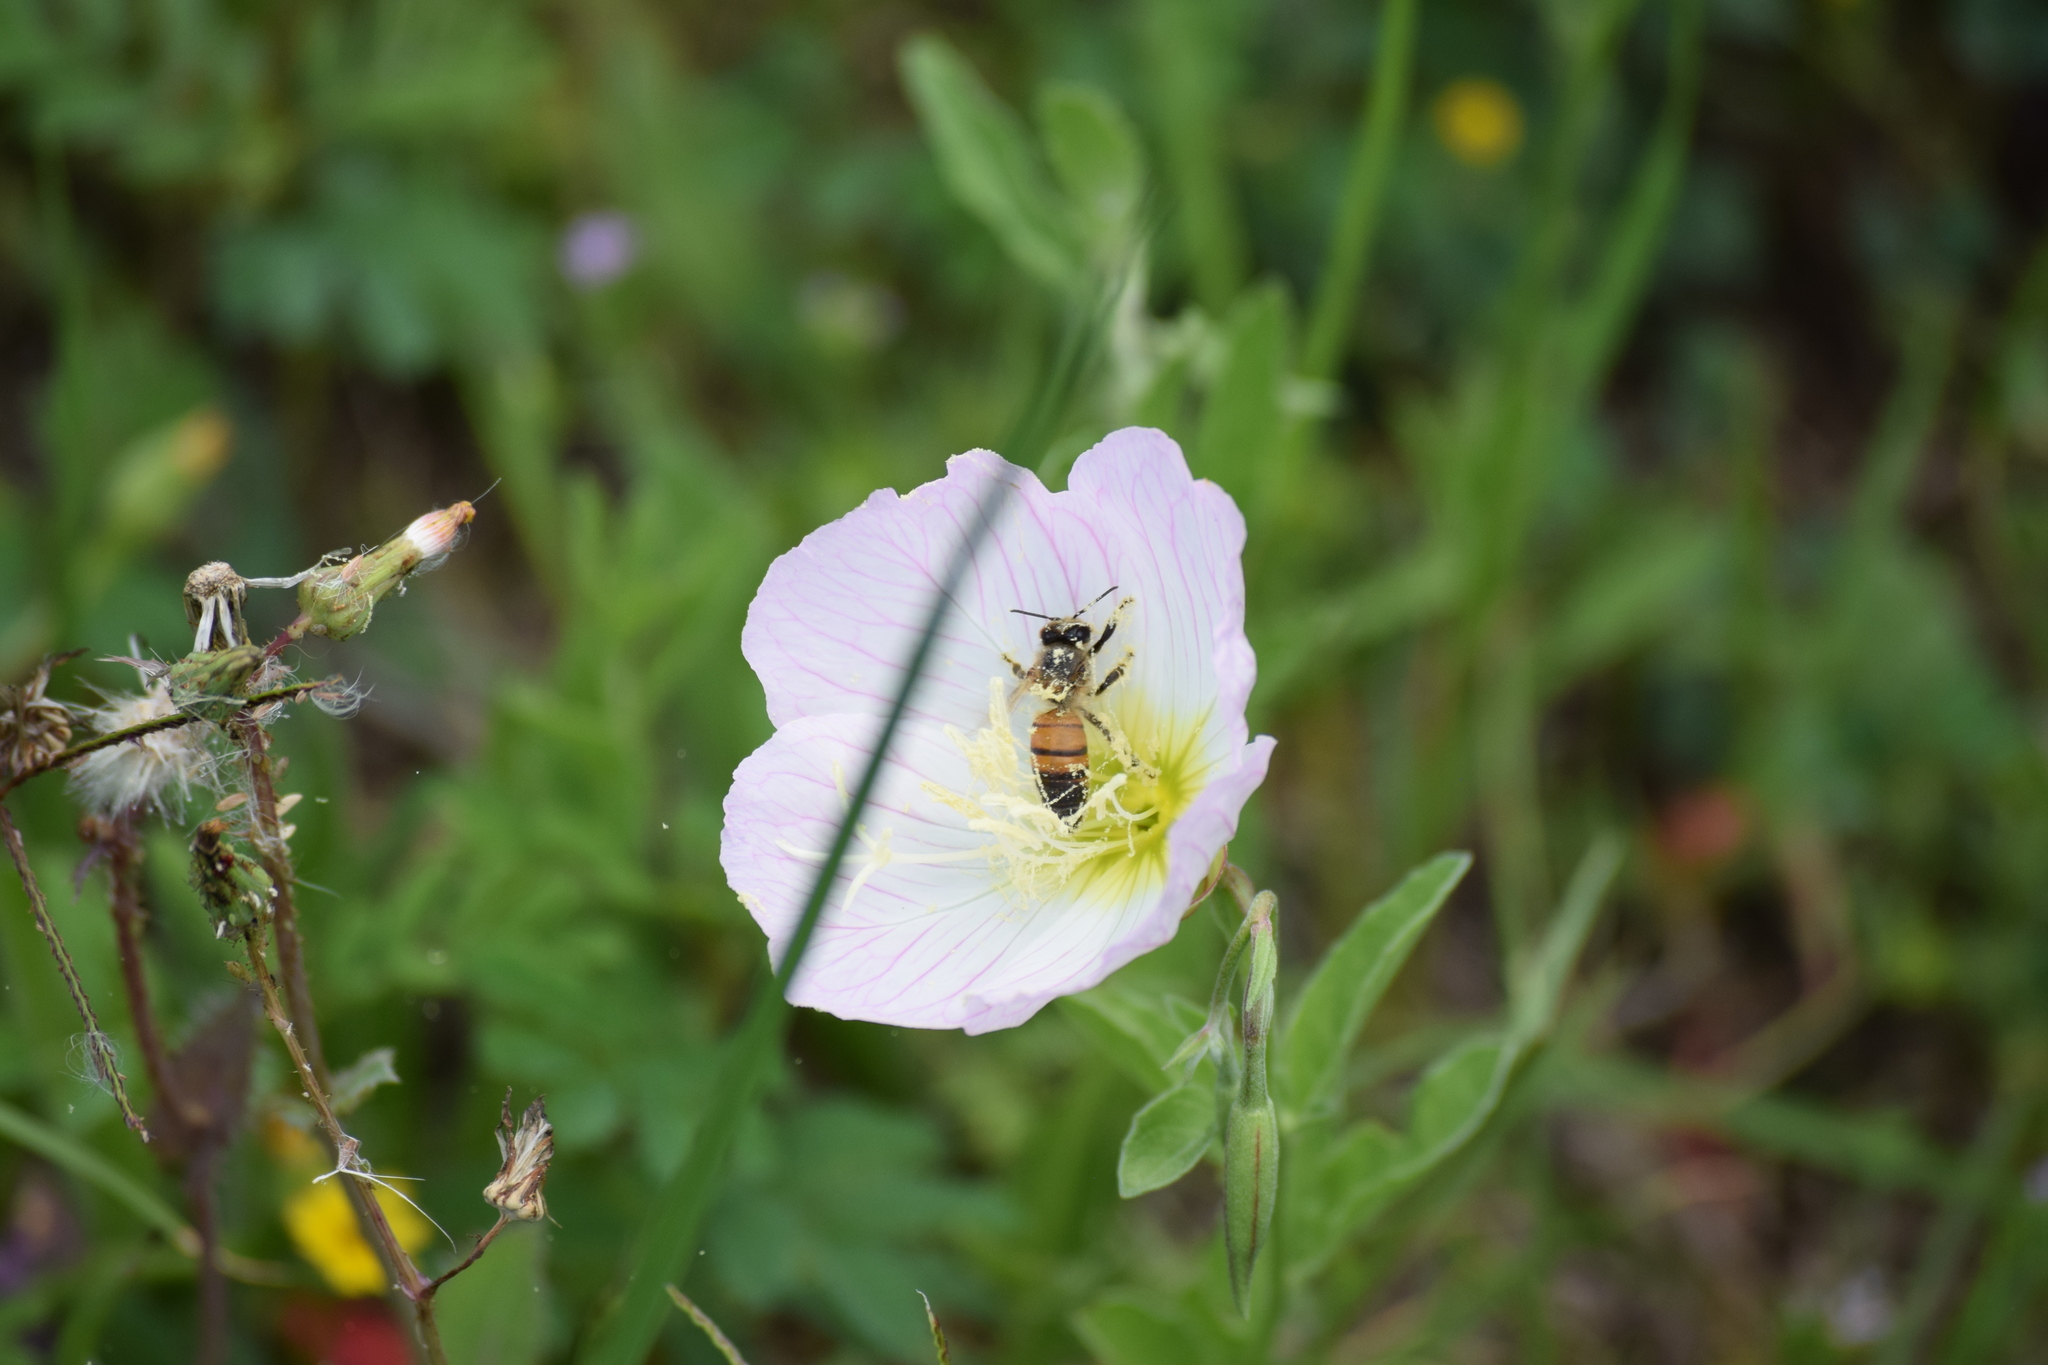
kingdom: Animalia
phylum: Arthropoda
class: Insecta
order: Hymenoptera
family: Apidae
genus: Apis
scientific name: Apis mellifera
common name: Honey bee
